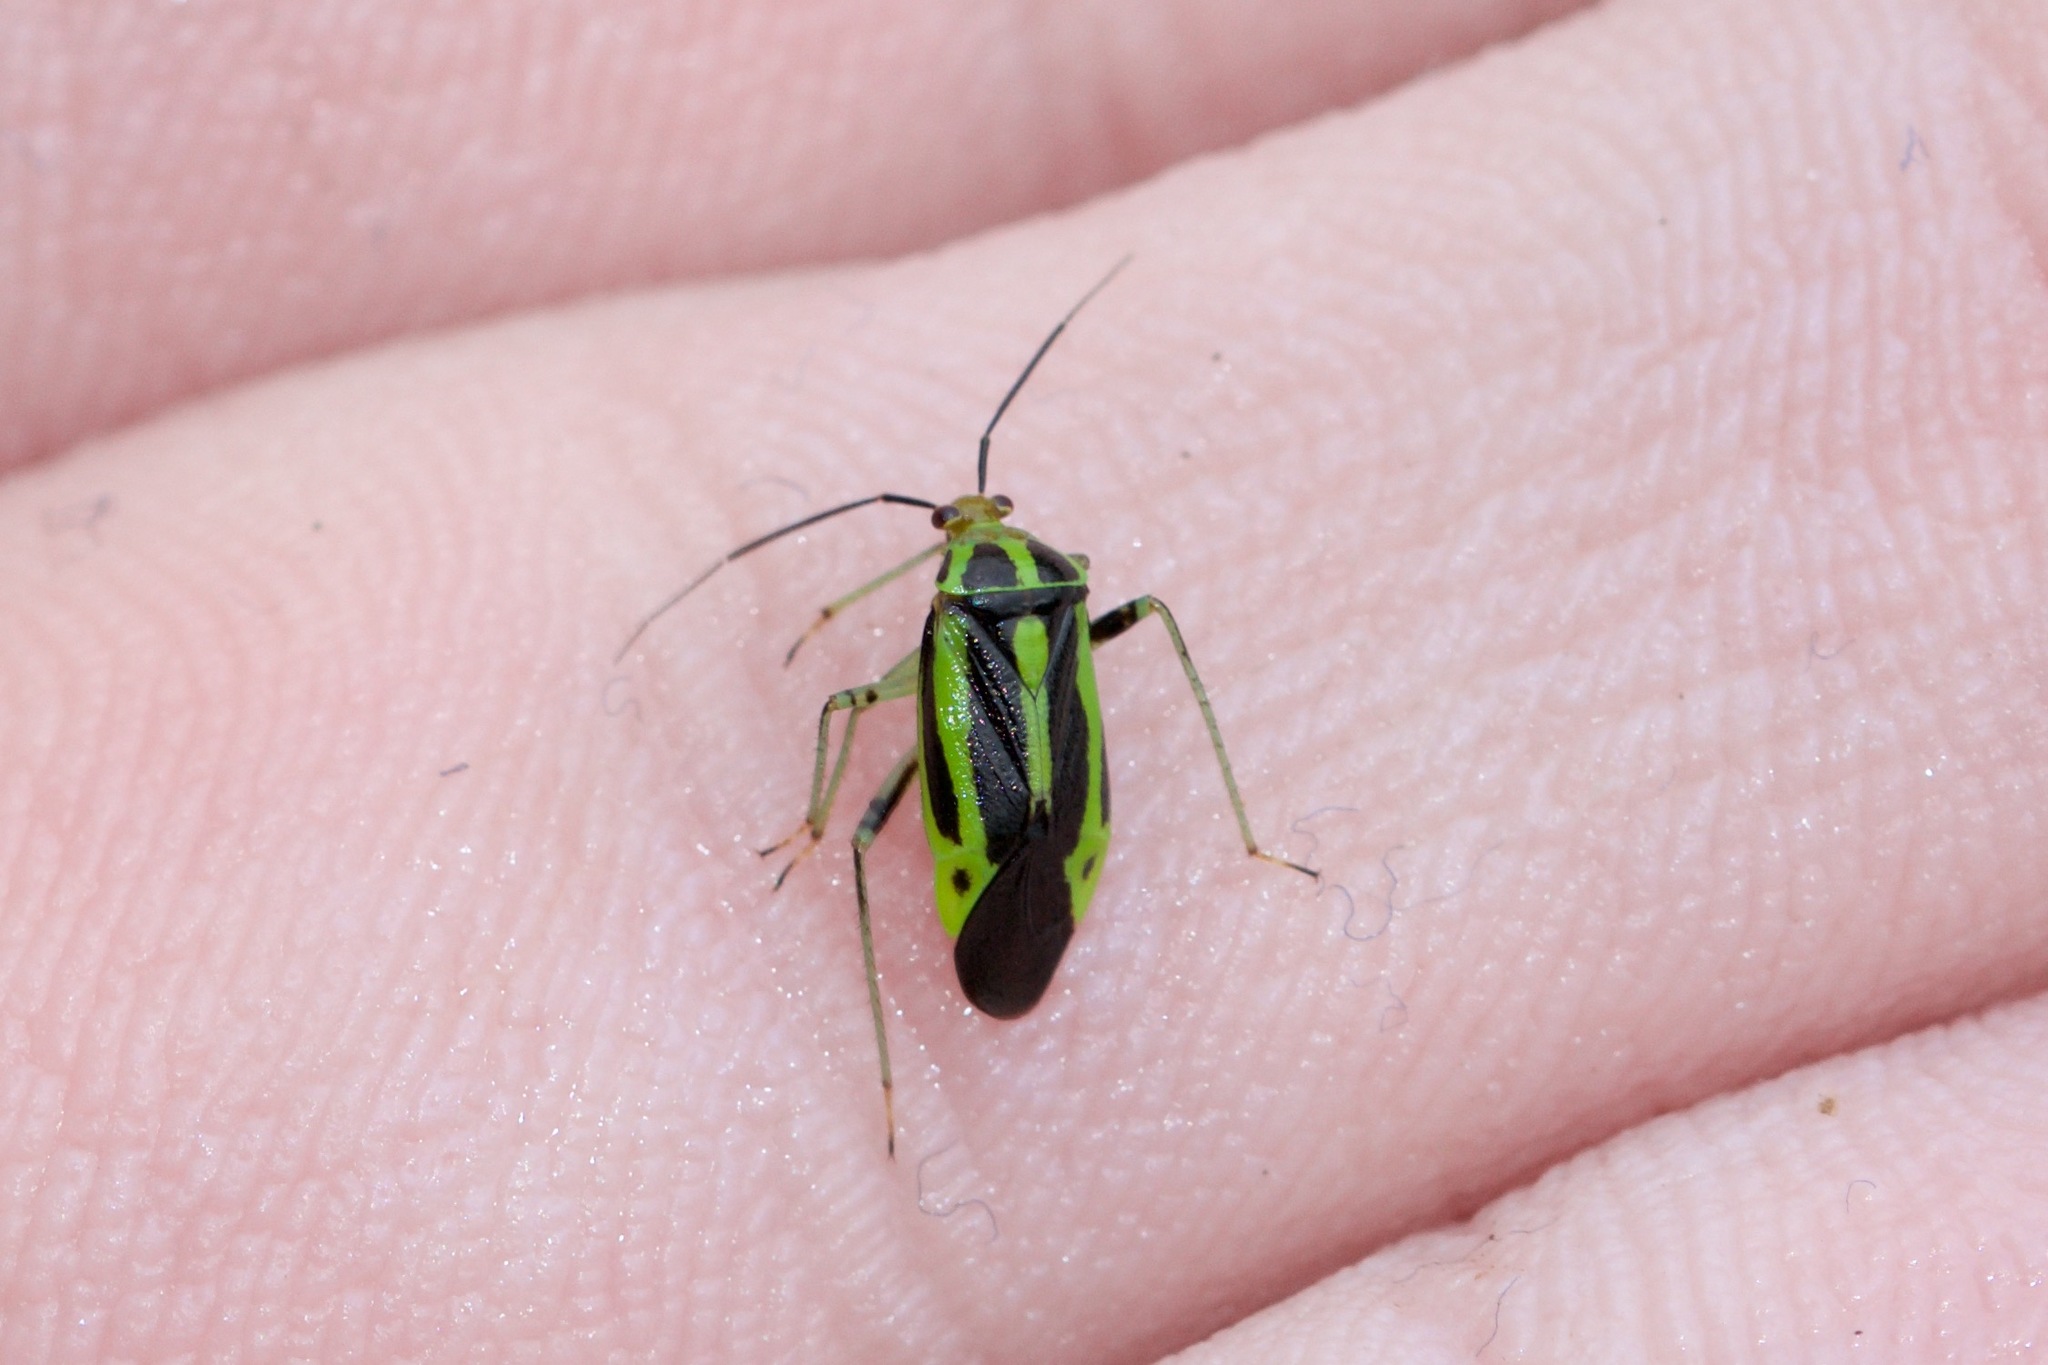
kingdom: Animalia
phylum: Arthropoda
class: Insecta
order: Hemiptera
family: Miridae
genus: Poecilocapsus
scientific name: Poecilocapsus lineatus
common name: Four-lined plant bug
